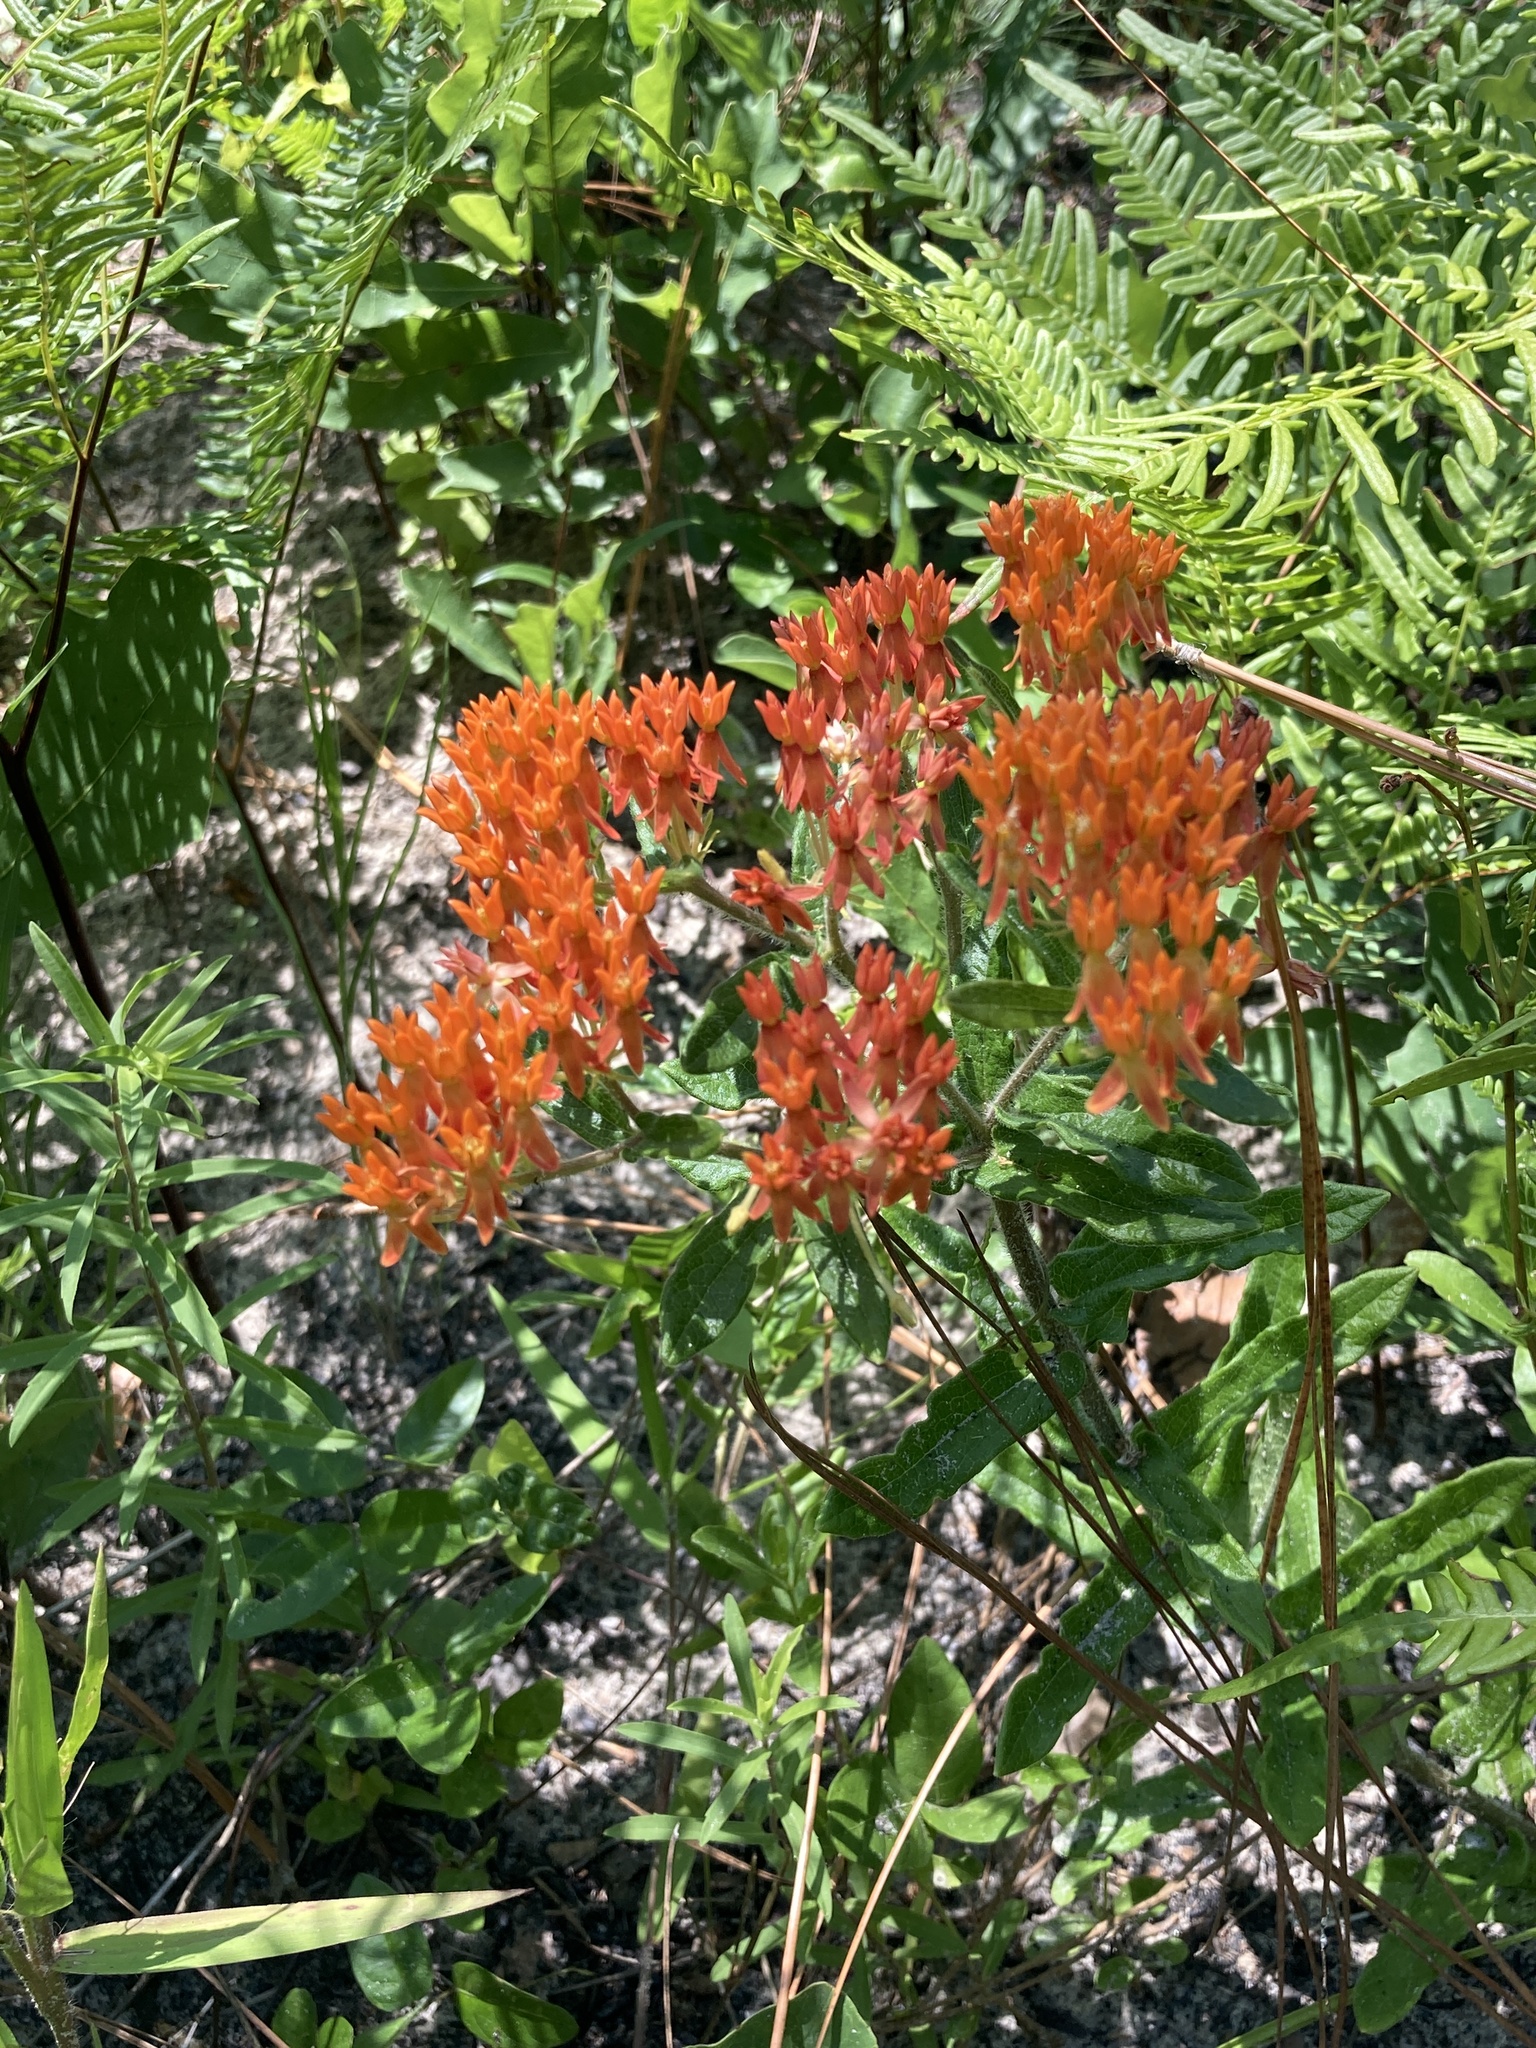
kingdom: Plantae
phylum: Tracheophyta
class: Magnoliopsida
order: Gentianales
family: Apocynaceae
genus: Asclepias
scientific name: Asclepias tuberosa
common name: Butterfly milkweed
